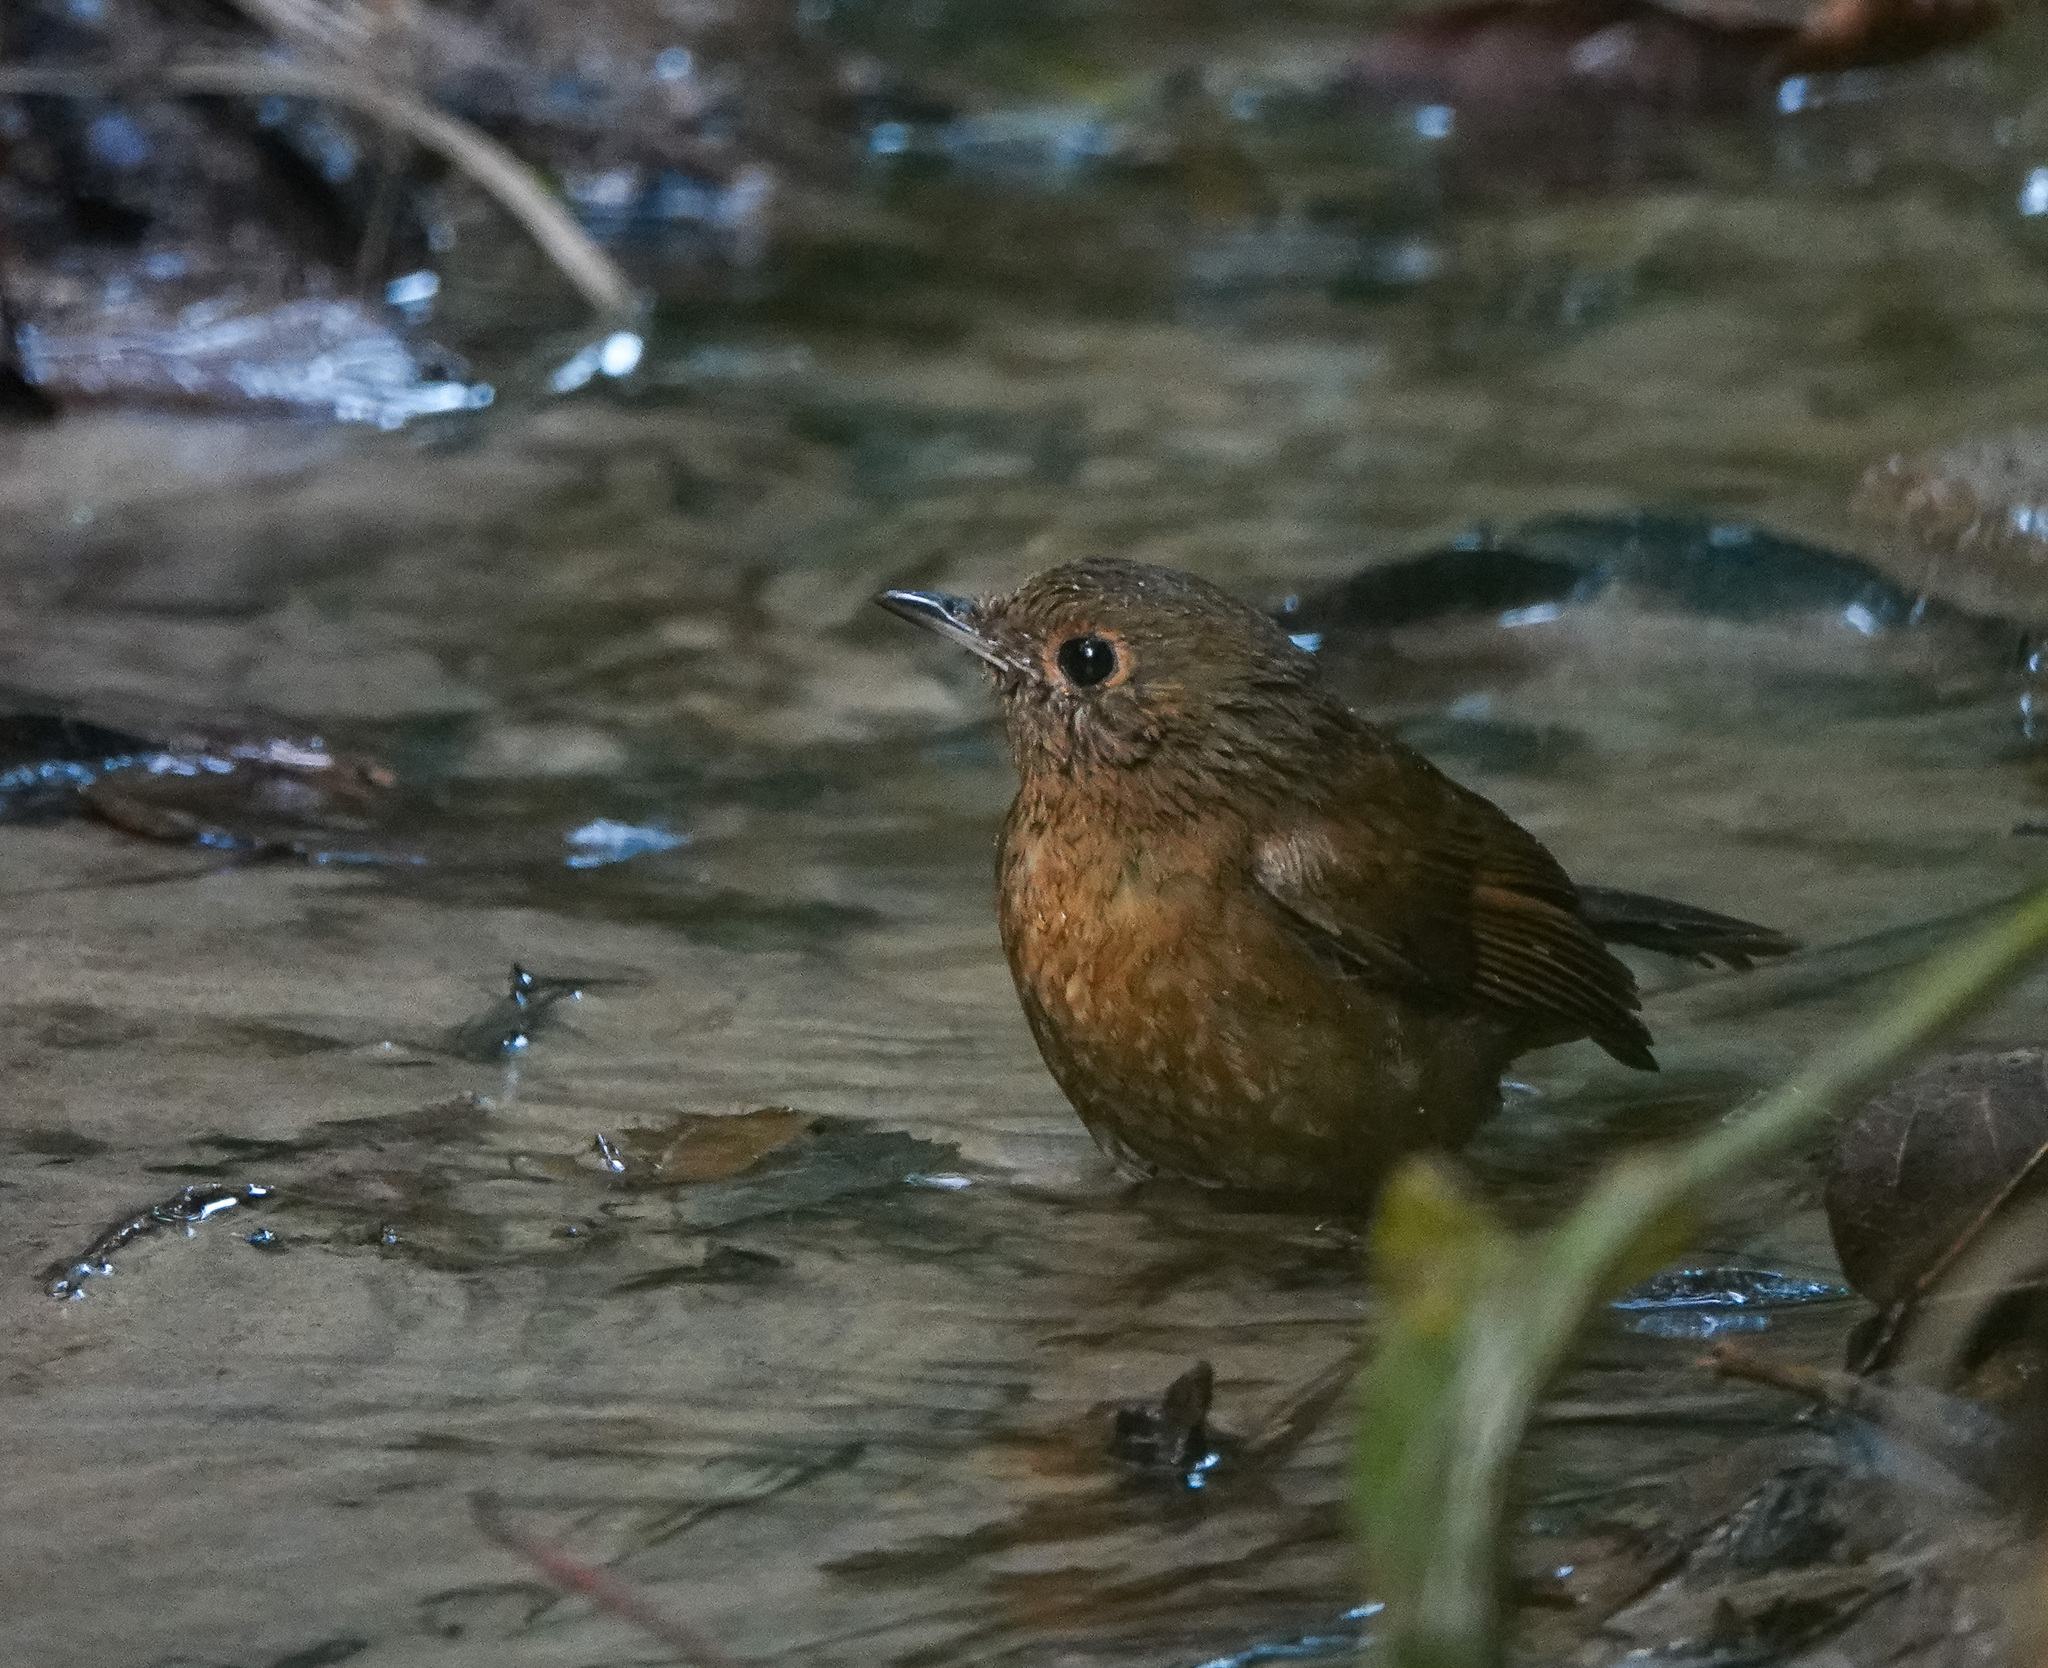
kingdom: Animalia
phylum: Chordata
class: Aves
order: Passeriformes
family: Muscicapidae
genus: Myiomela
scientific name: Myiomela leucura
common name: White-tailed robin
